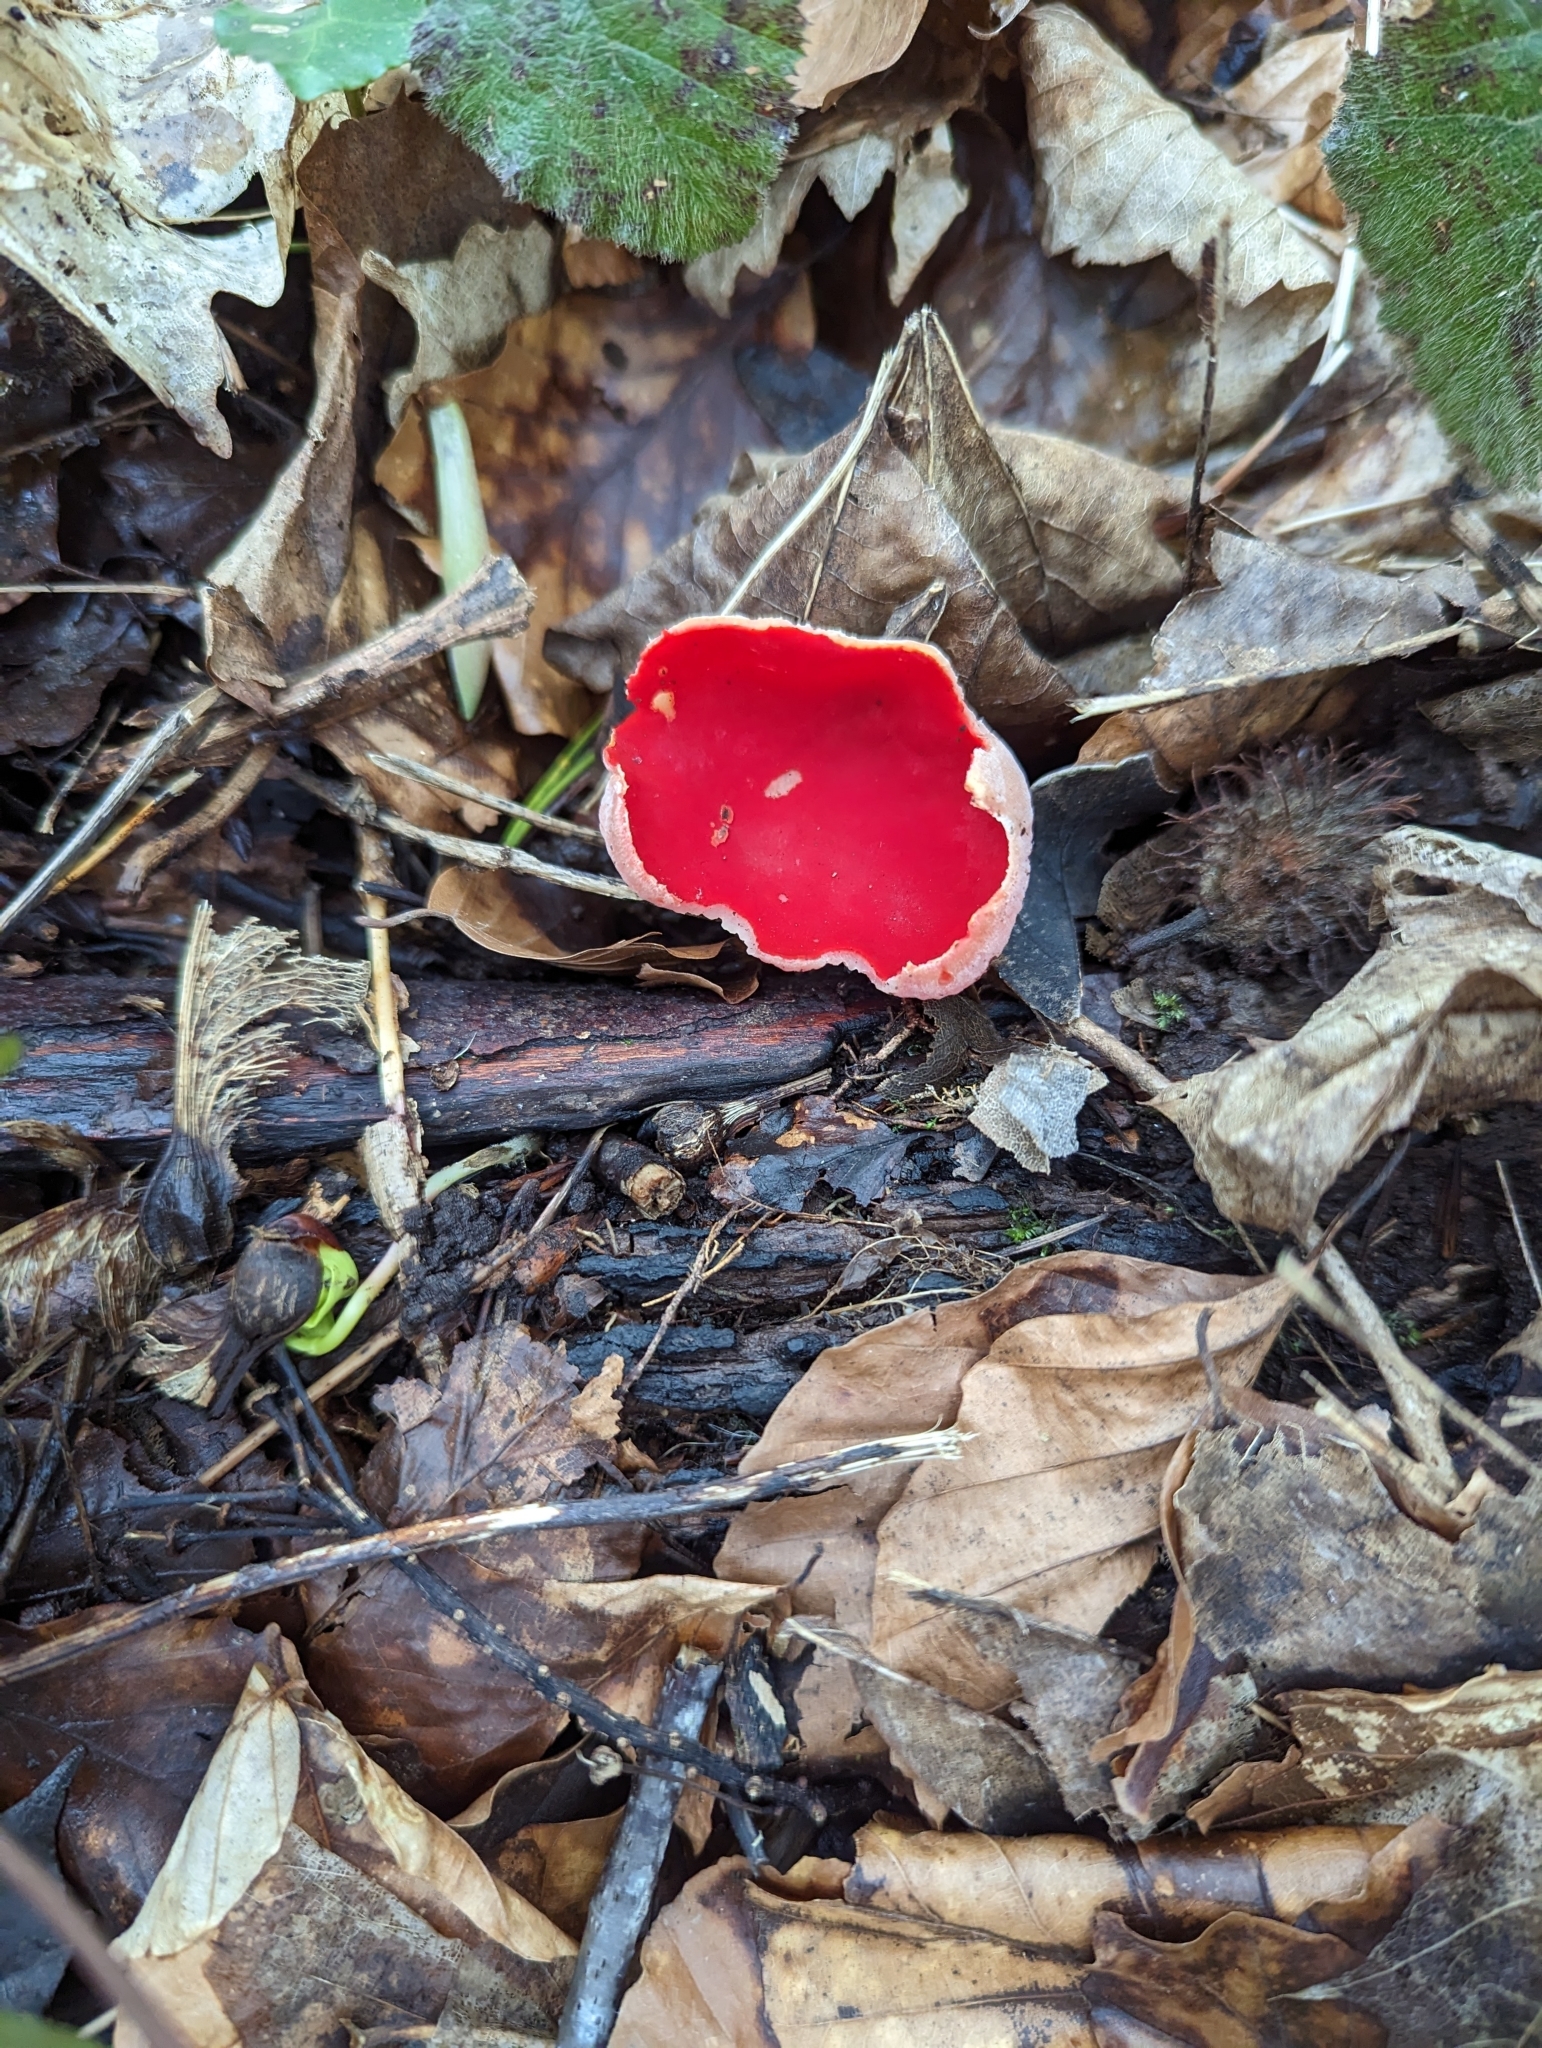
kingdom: Fungi
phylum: Ascomycota
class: Pezizomycetes
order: Pezizales
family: Sarcoscyphaceae
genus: Sarcoscypha
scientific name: Sarcoscypha
